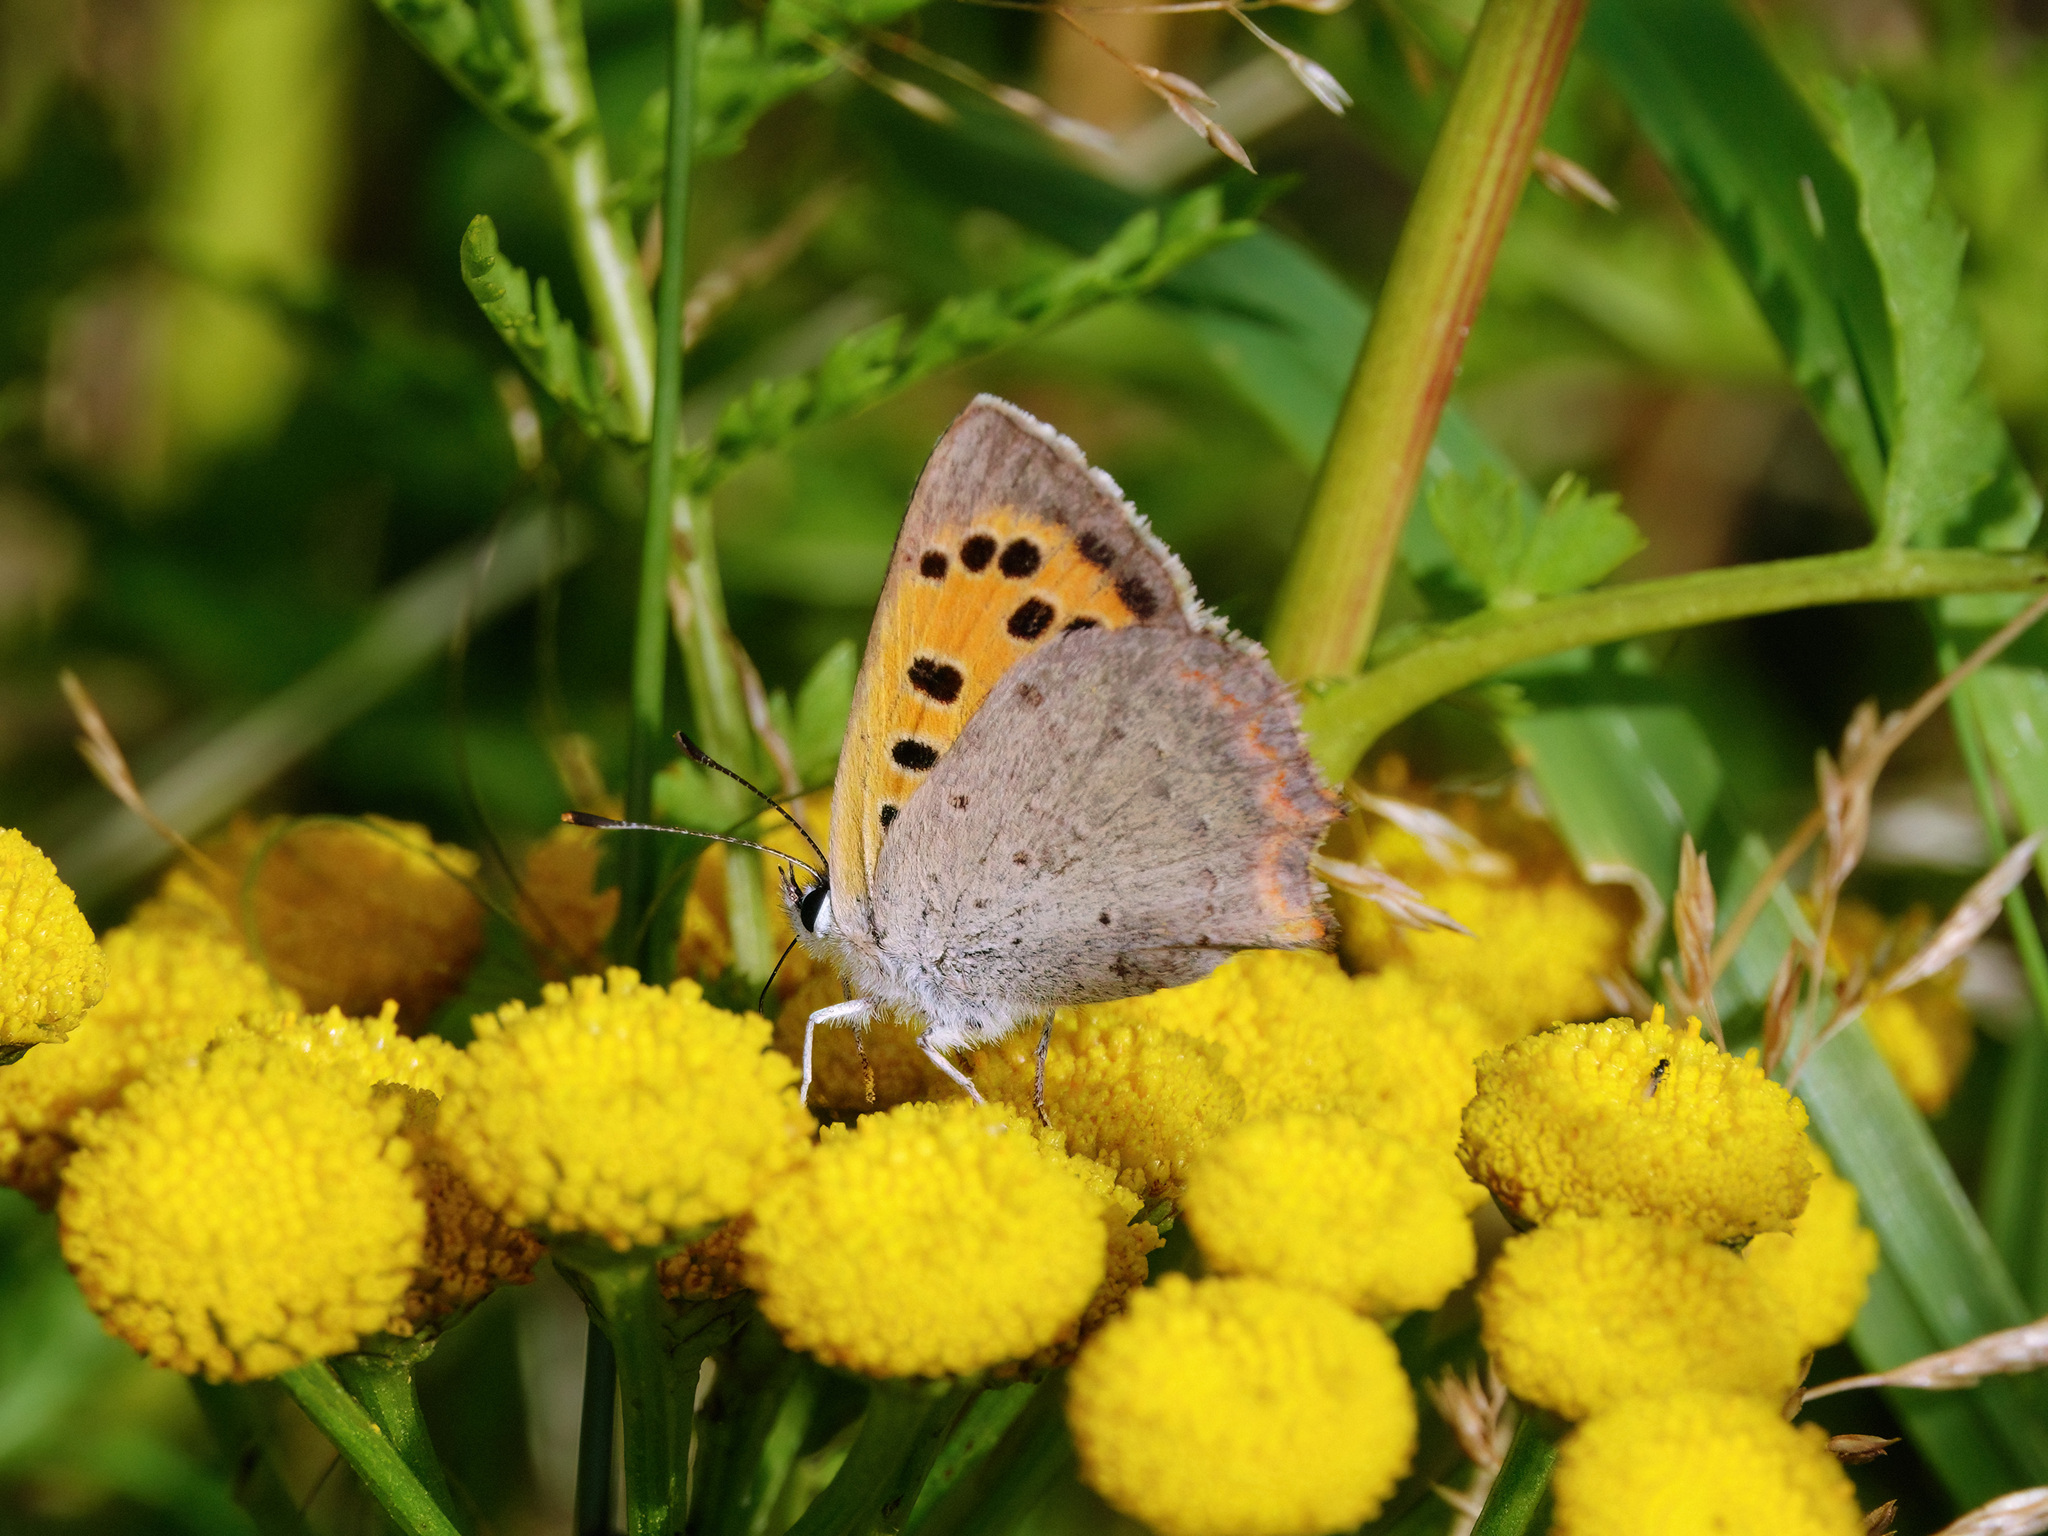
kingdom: Animalia
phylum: Arthropoda
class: Insecta
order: Lepidoptera
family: Lycaenidae
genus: Lycaena
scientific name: Lycaena phlaeas
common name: Small copper
